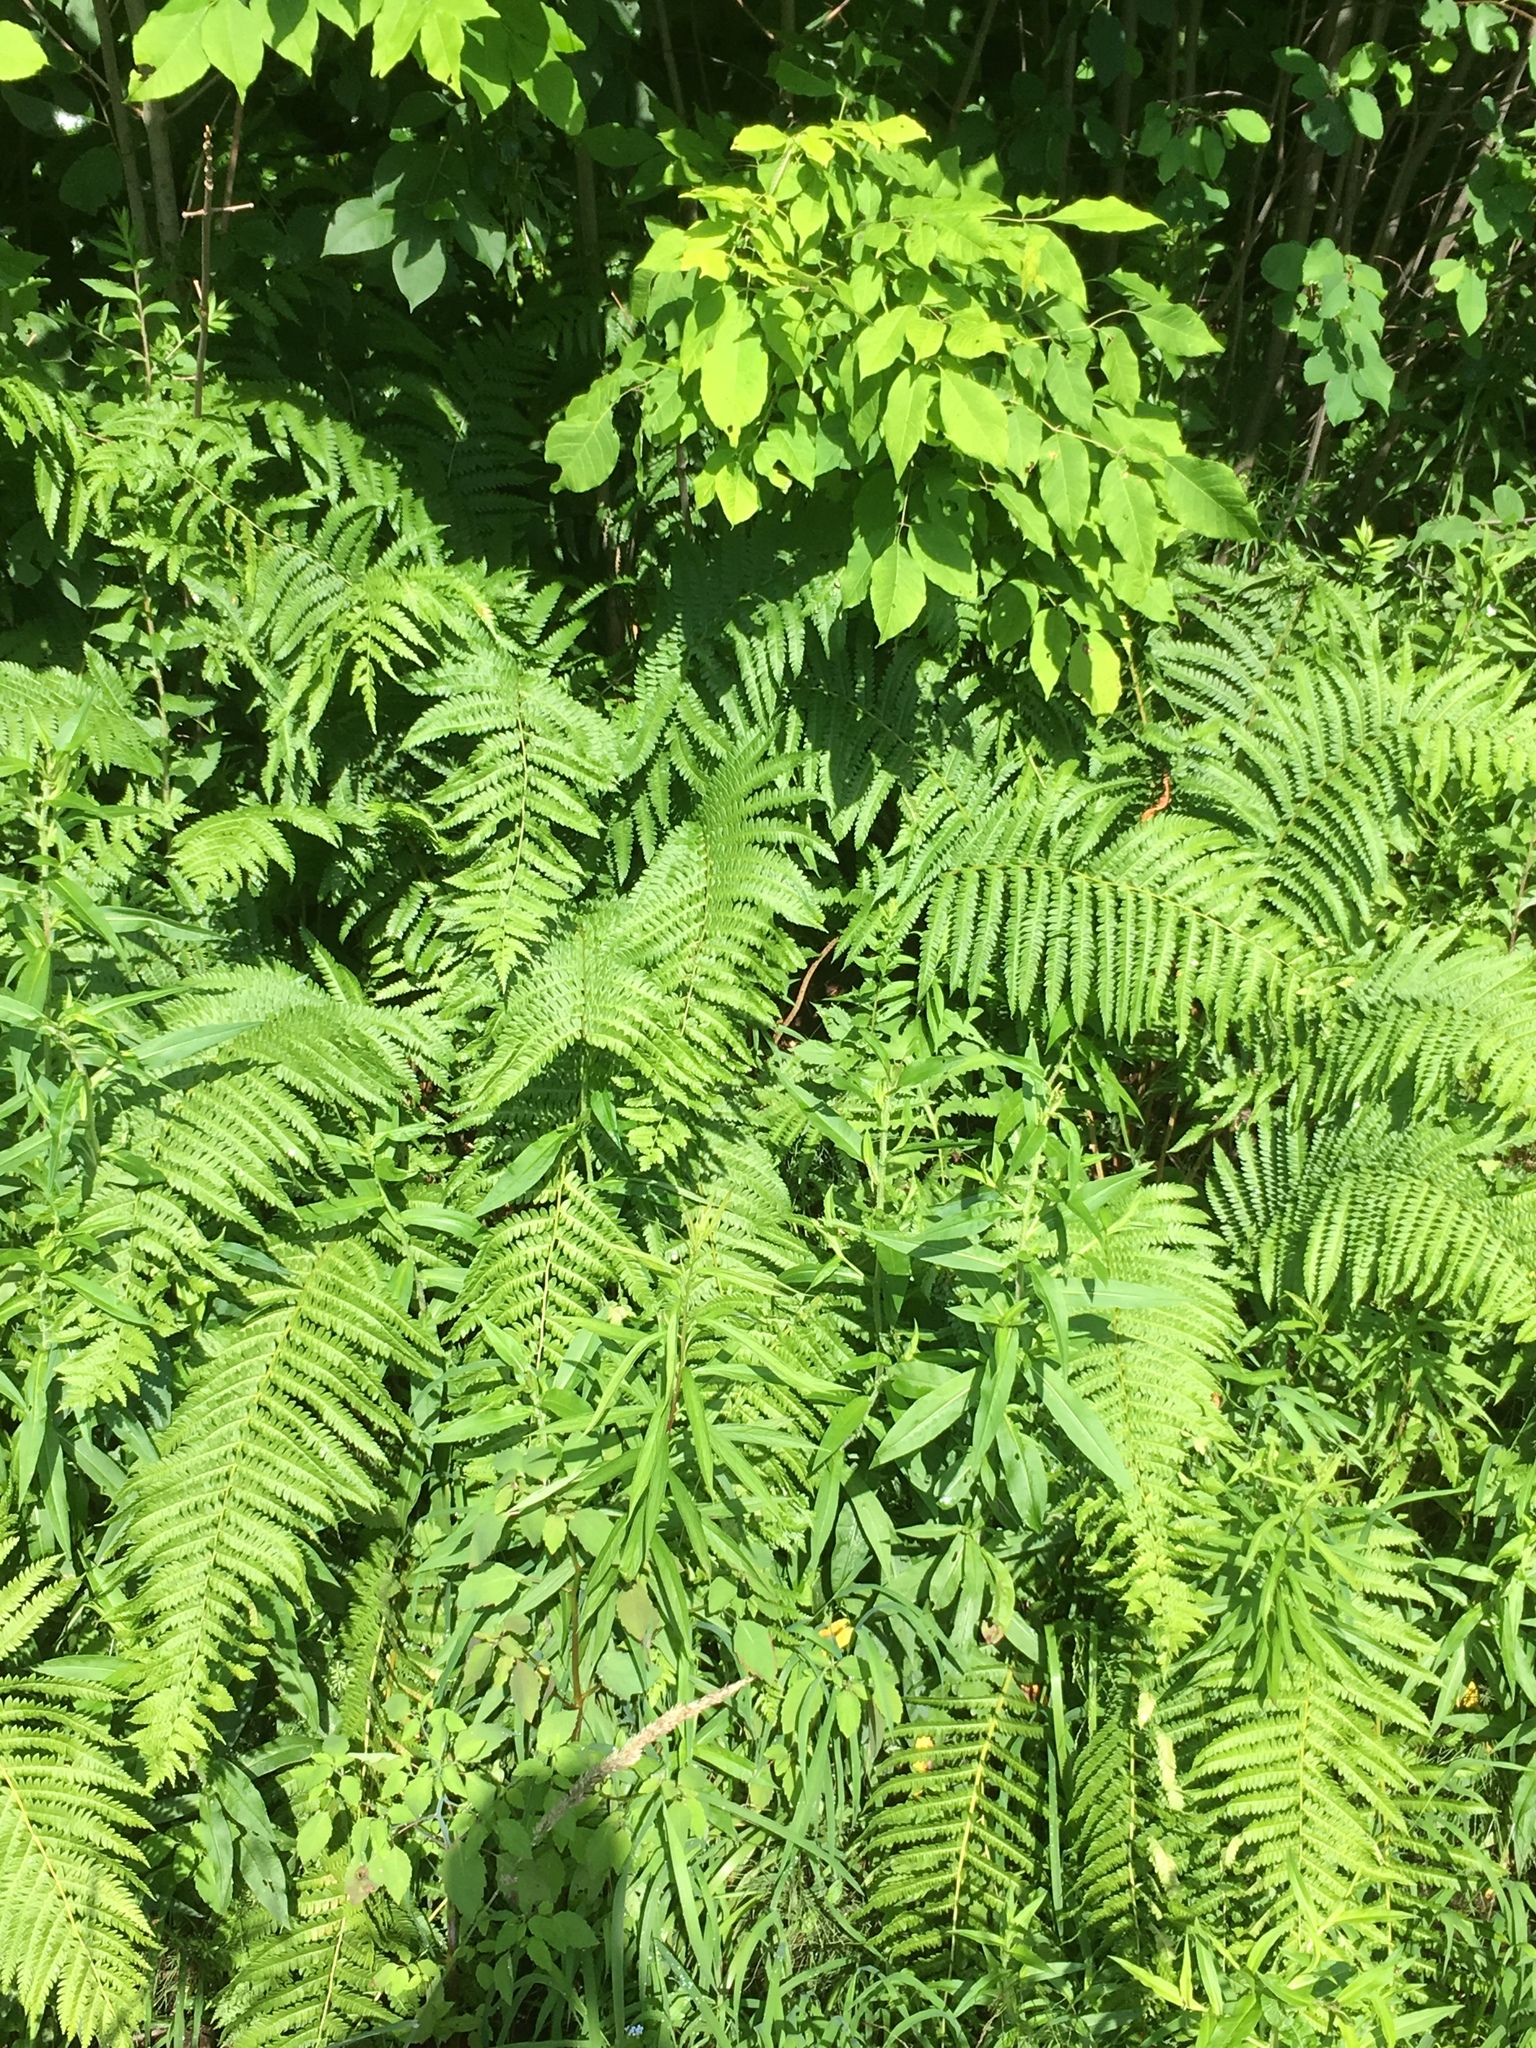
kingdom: Plantae
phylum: Tracheophyta
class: Polypodiopsida
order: Osmundales
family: Osmundaceae
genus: Osmundastrum
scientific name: Osmundastrum cinnamomeum
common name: Cinnamon fern
